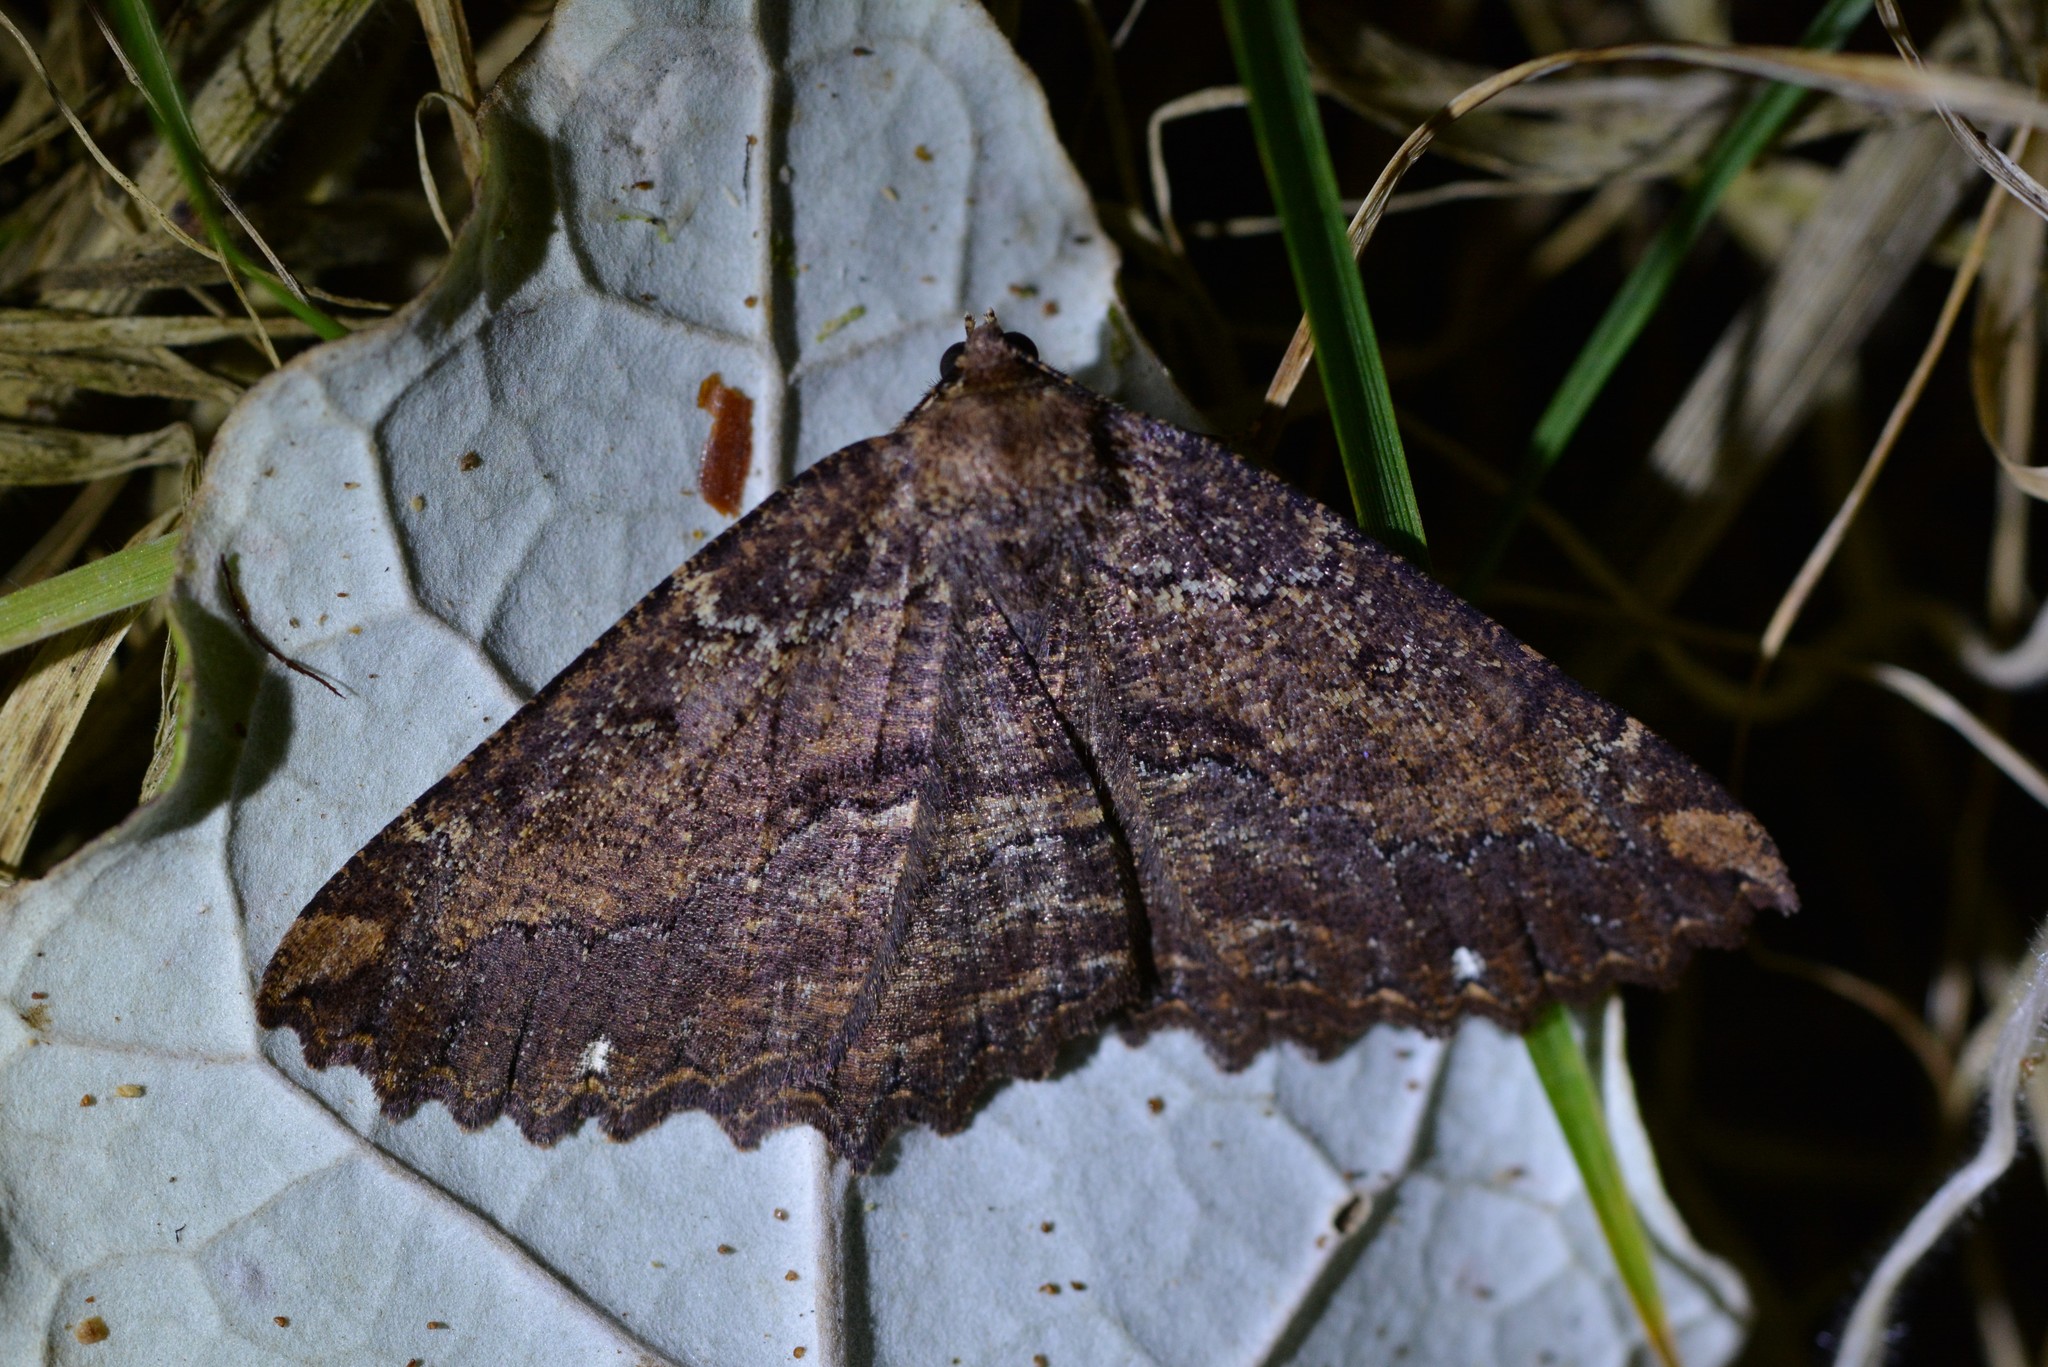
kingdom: Animalia
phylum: Arthropoda
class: Insecta
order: Lepidoptera
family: Geometridae
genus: Gellonia
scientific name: Gellonia dejectaria
